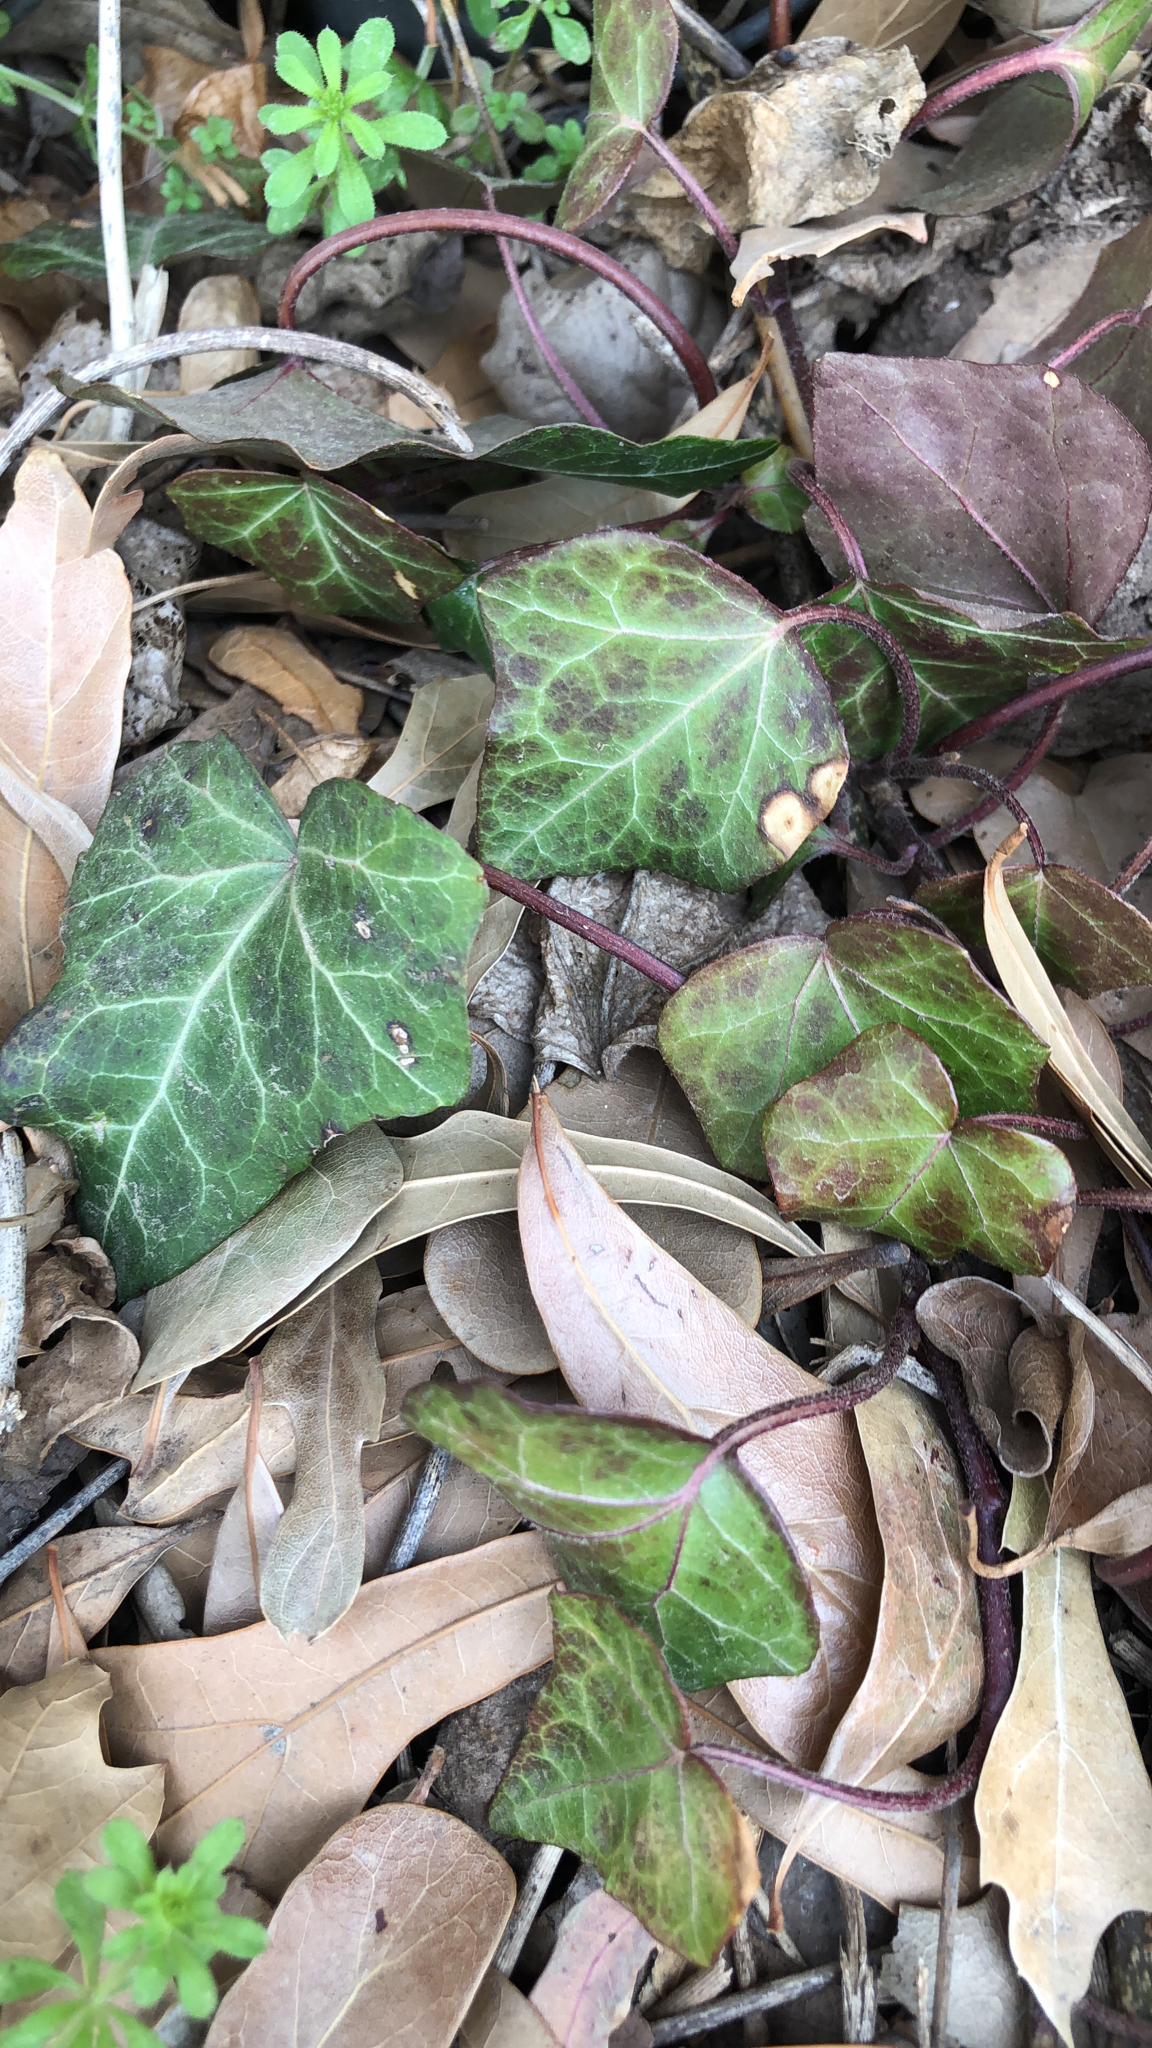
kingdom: Plantae
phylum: Tracheophyta
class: Magnoliopsida
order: Apiales
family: Araliaceae
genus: Hedera
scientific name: Hedera helix
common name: Ivy
